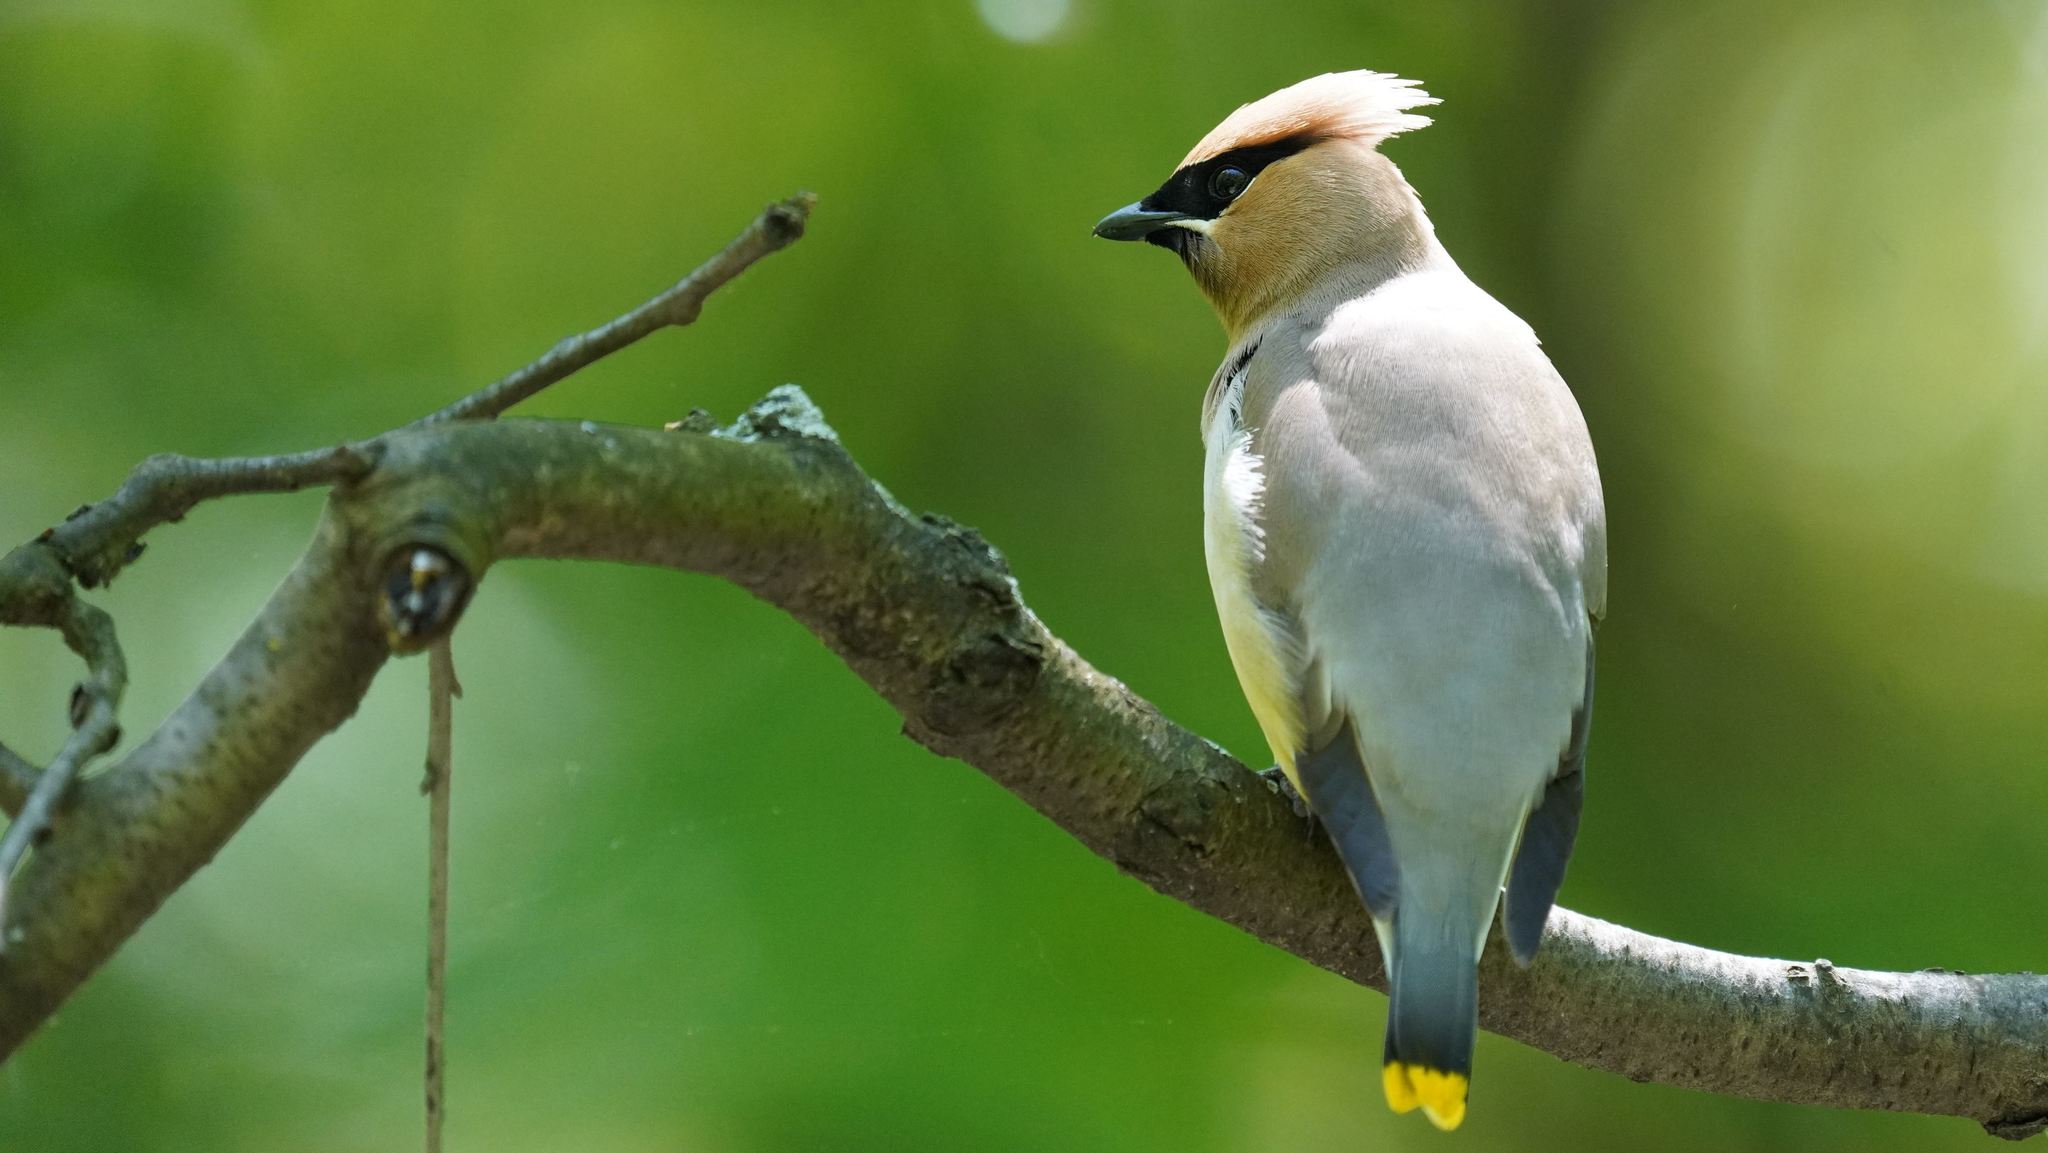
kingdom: Animalia
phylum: Chordata
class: Aves
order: Passeriformes
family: Bombycillidae
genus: Bombycilla
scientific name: Bombycilla cedrorum
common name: Cedar waxwing
